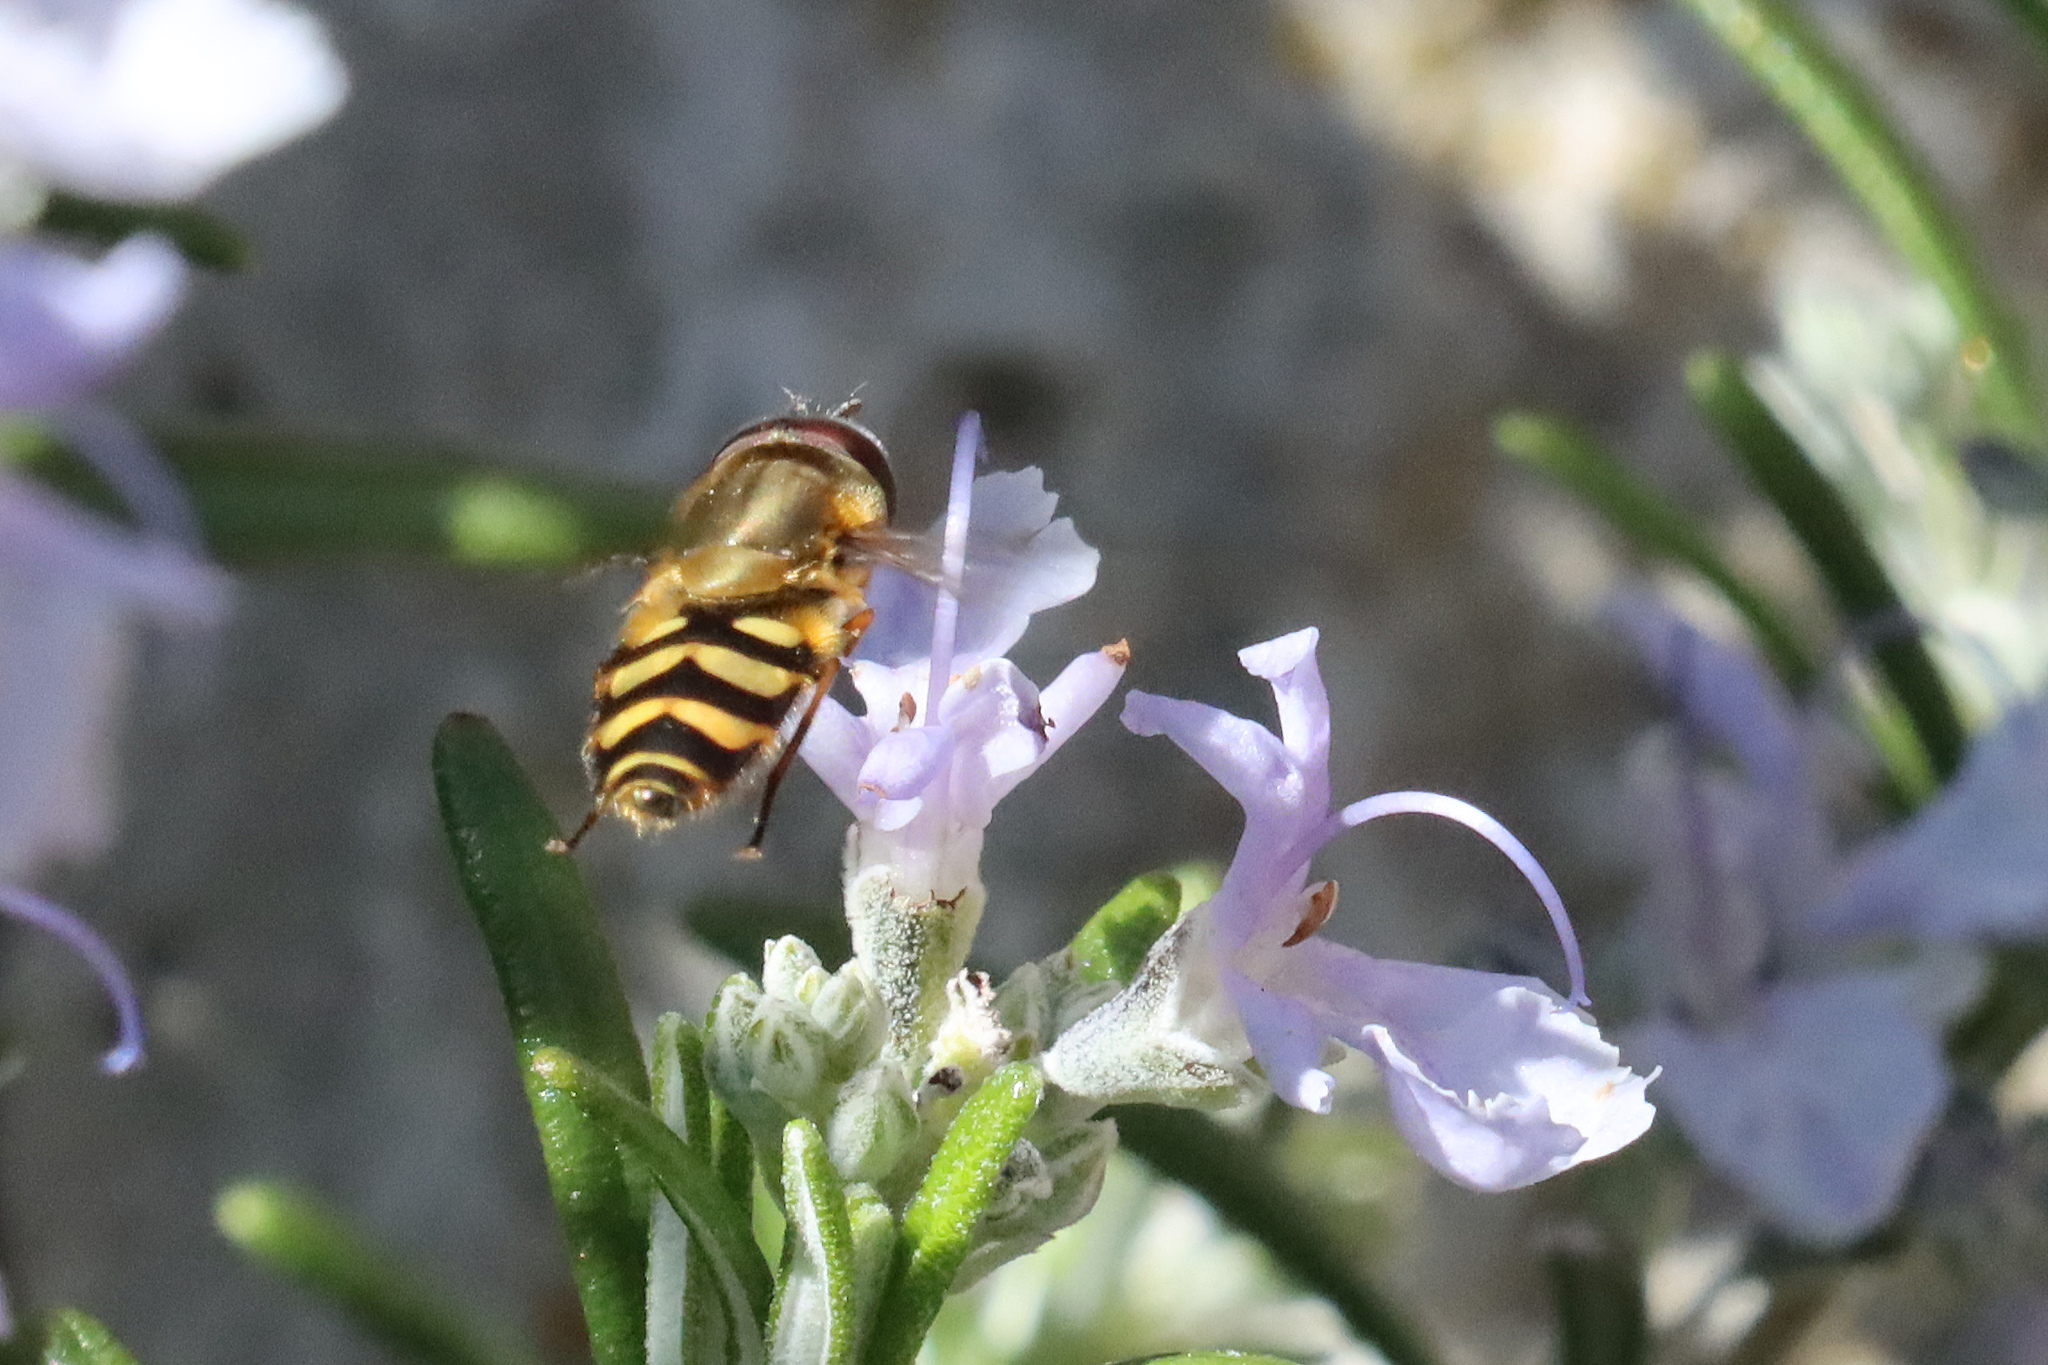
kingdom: Animalia
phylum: Arthropoda
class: Insecta
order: Diptera
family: Syrphidae
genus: Syrphus
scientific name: Syrphus torvus
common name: Hairy-eyed flower fly
